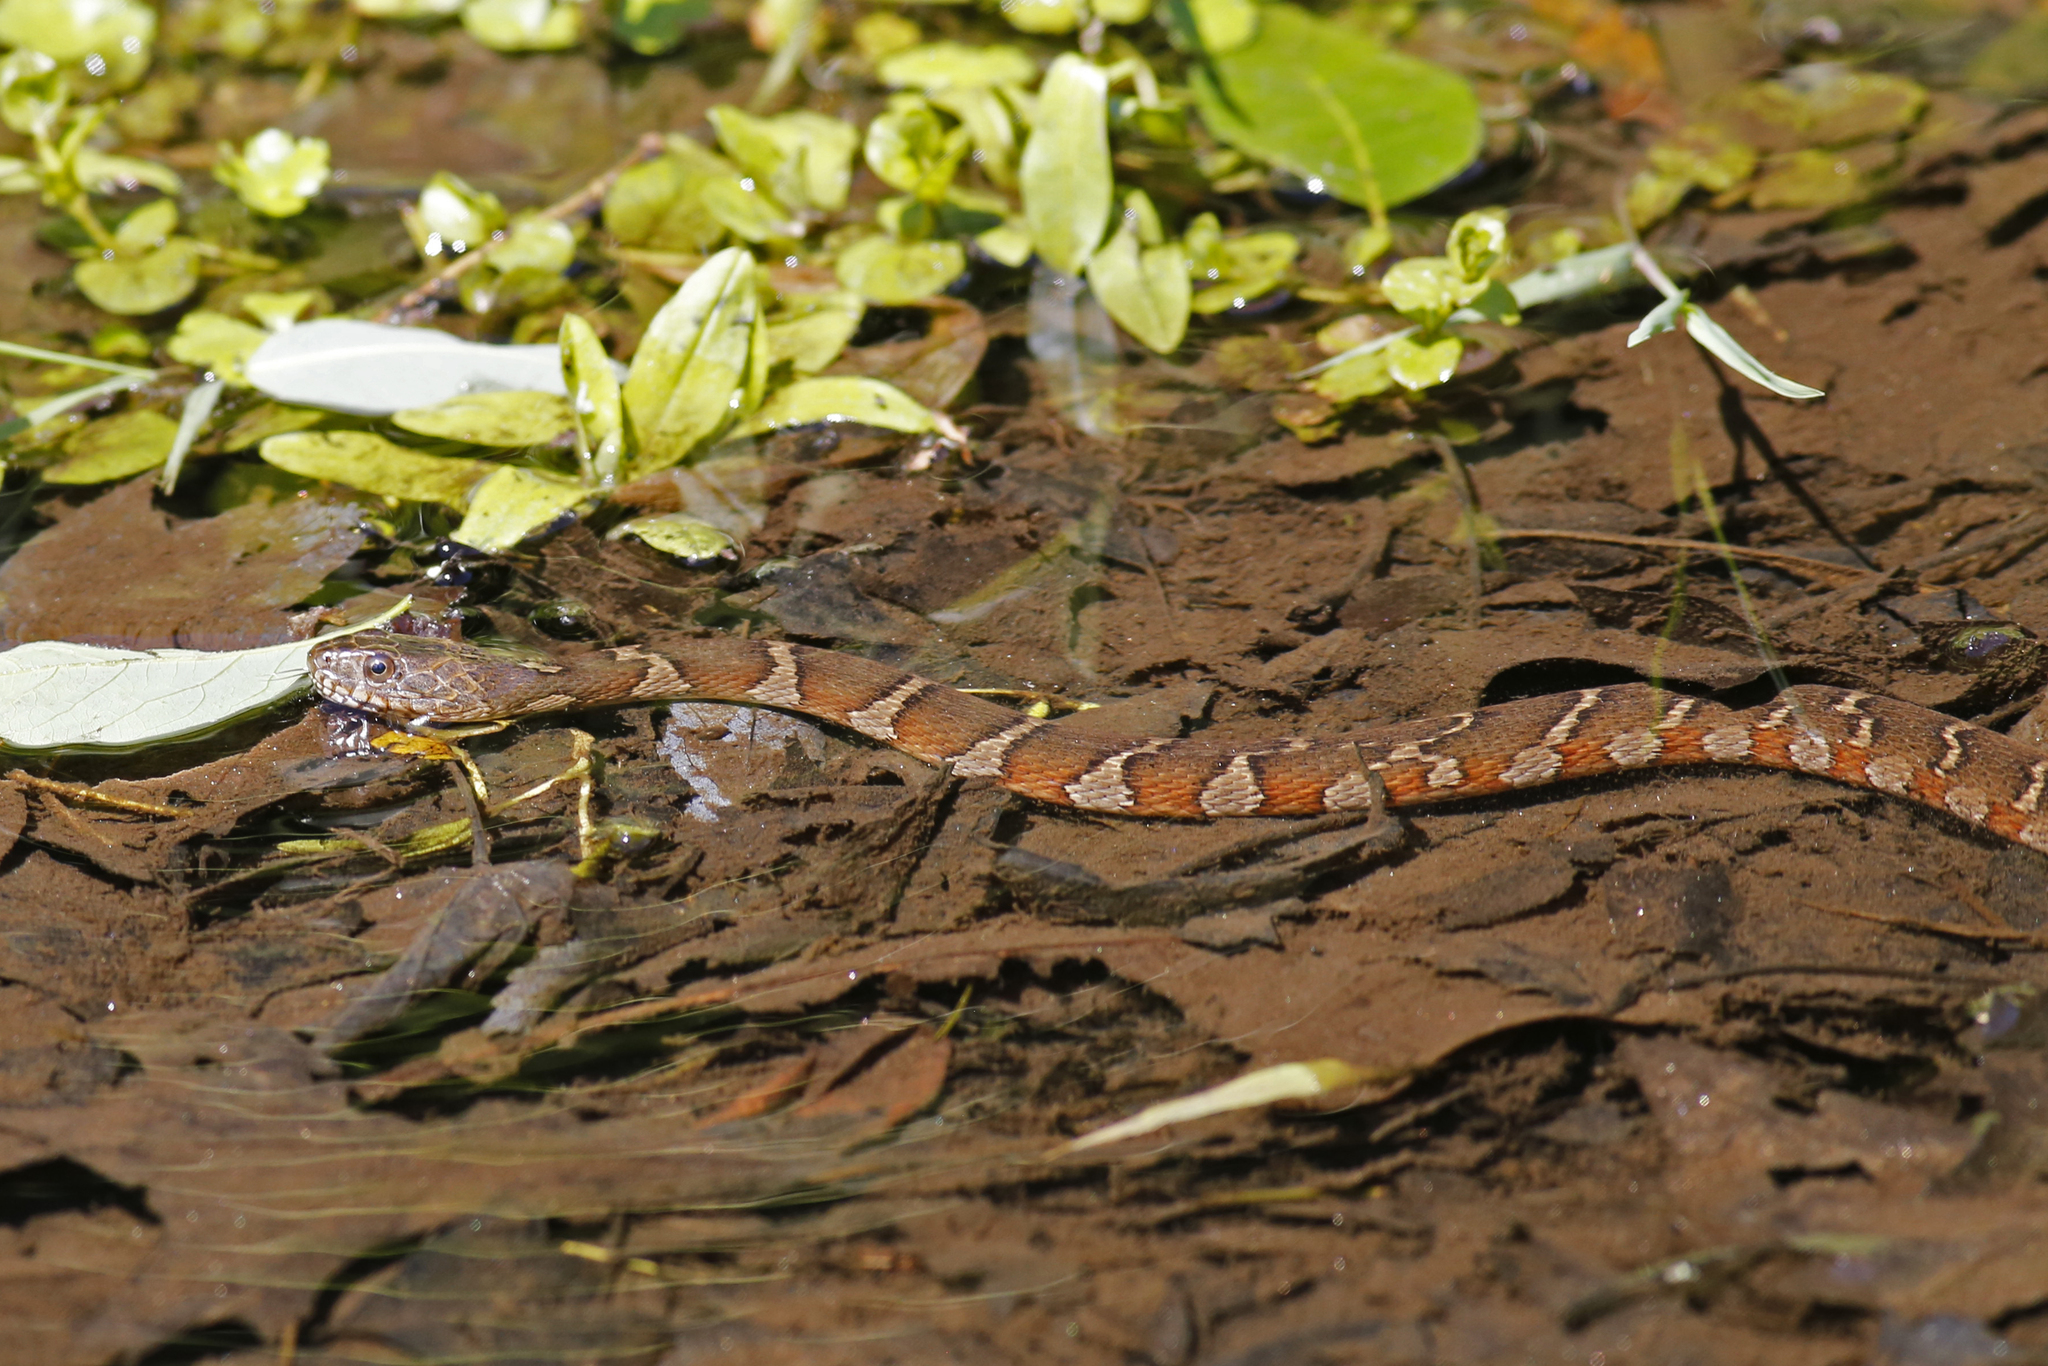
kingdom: Animalia
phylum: Chordata
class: Squamata
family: Colubridae
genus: Nerodia
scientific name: Nerodia sipedon
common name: Northern water snake
